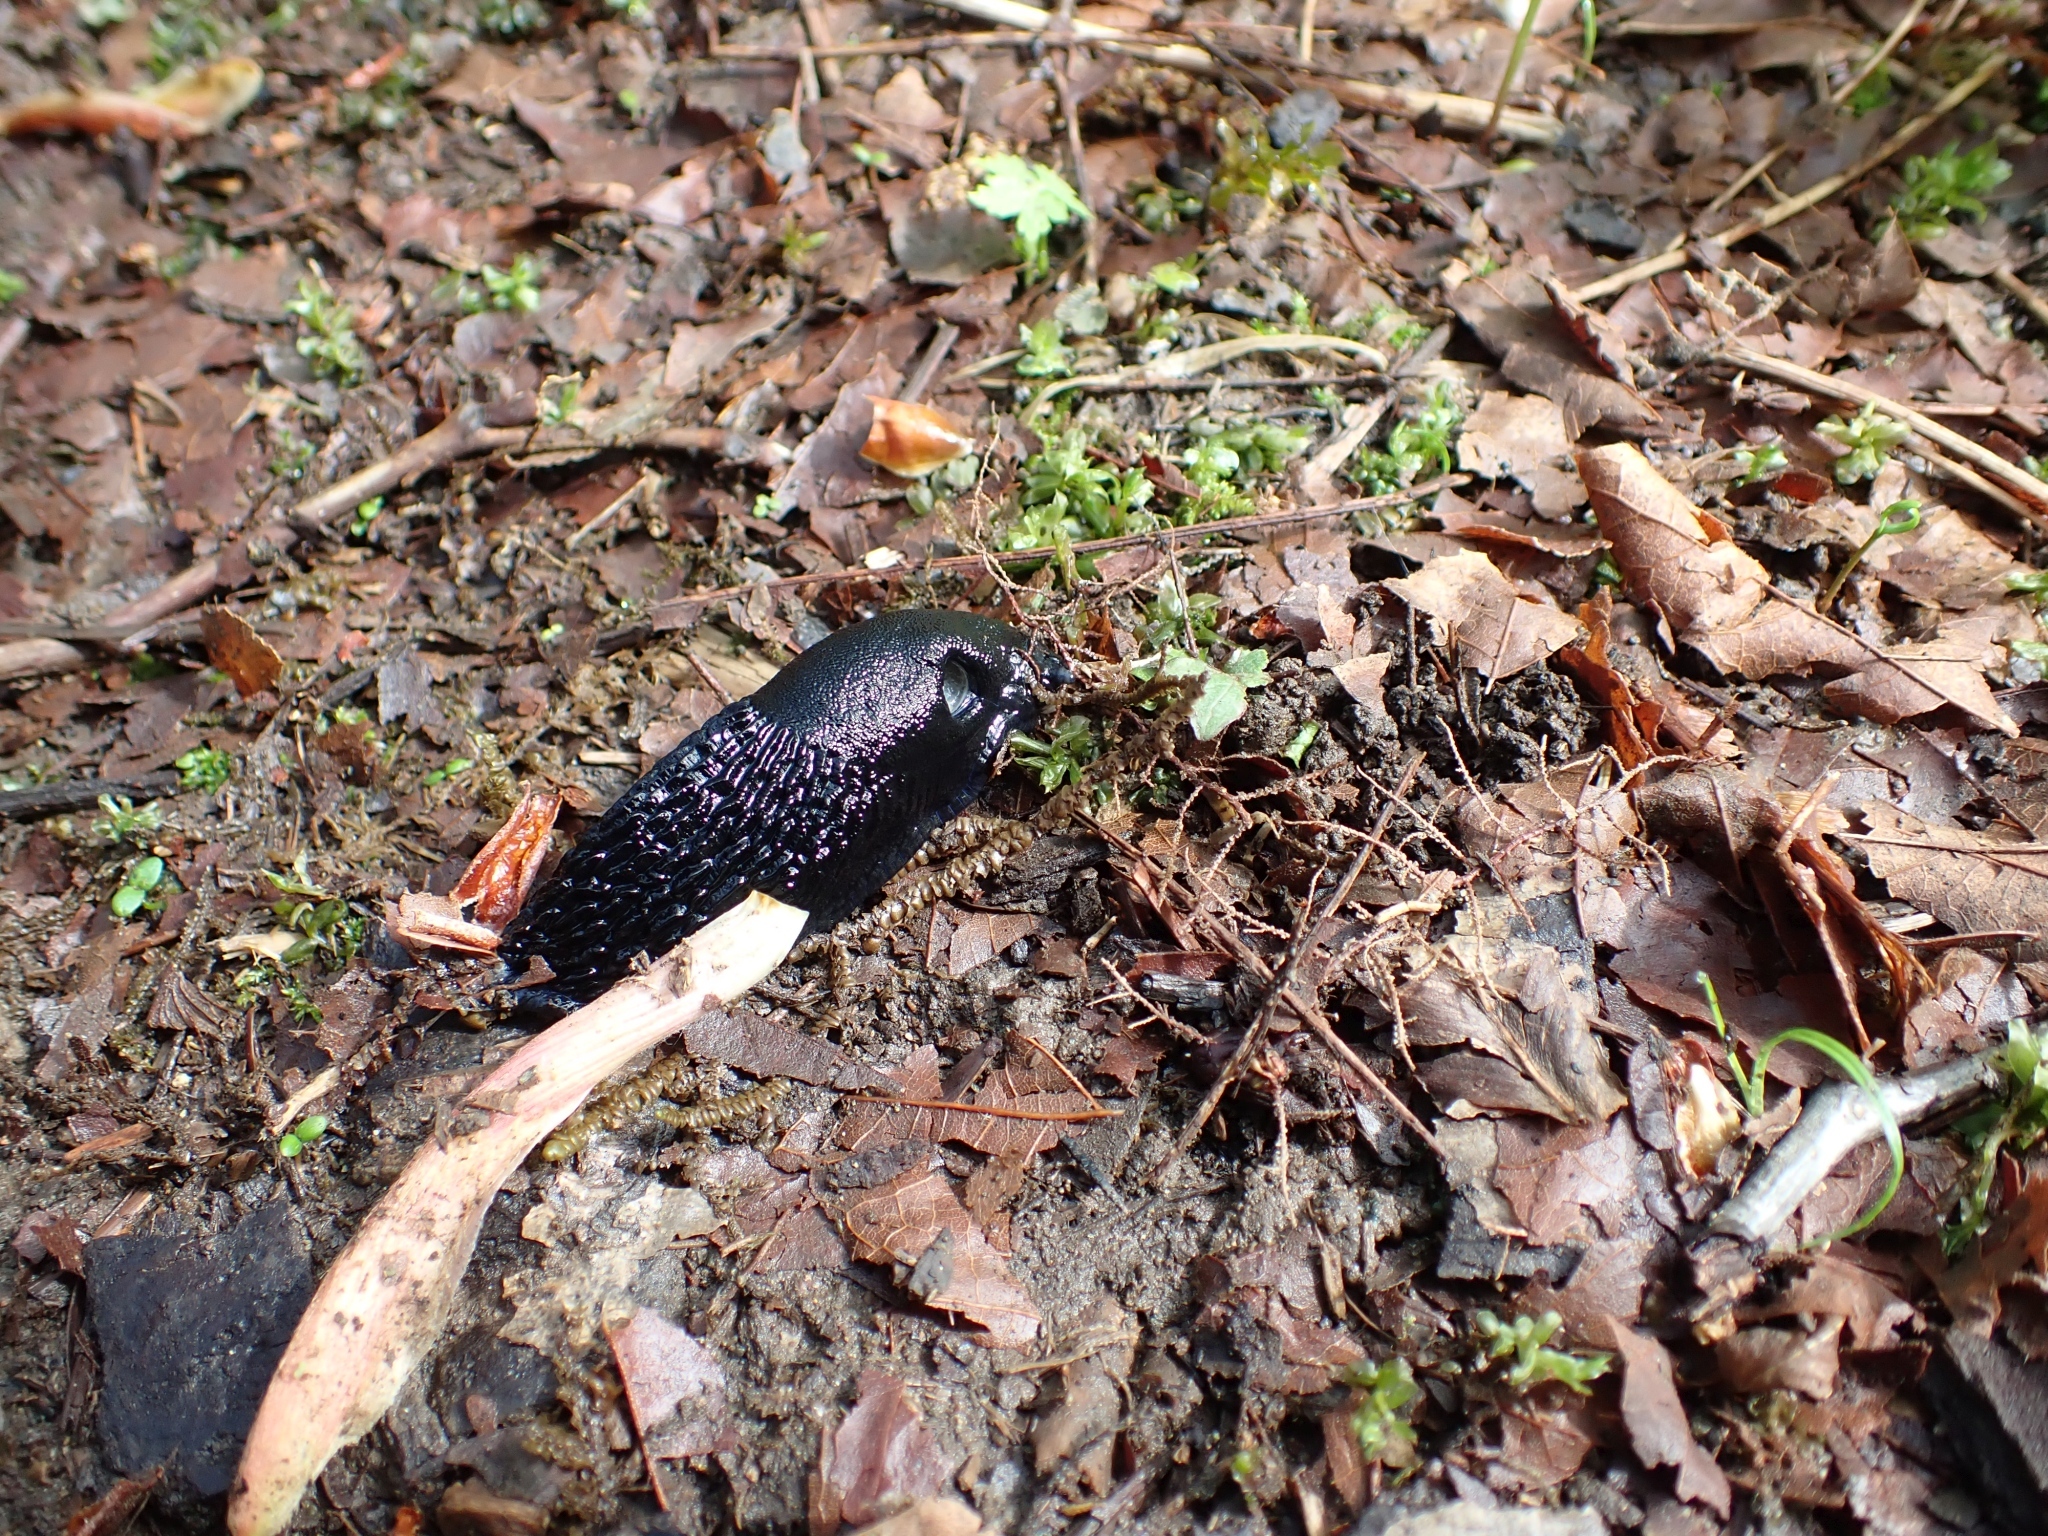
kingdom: Animalia
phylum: Mollusca
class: Gastropoda
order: Stylommatophora
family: Arionidae
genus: Arion
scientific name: Arion
